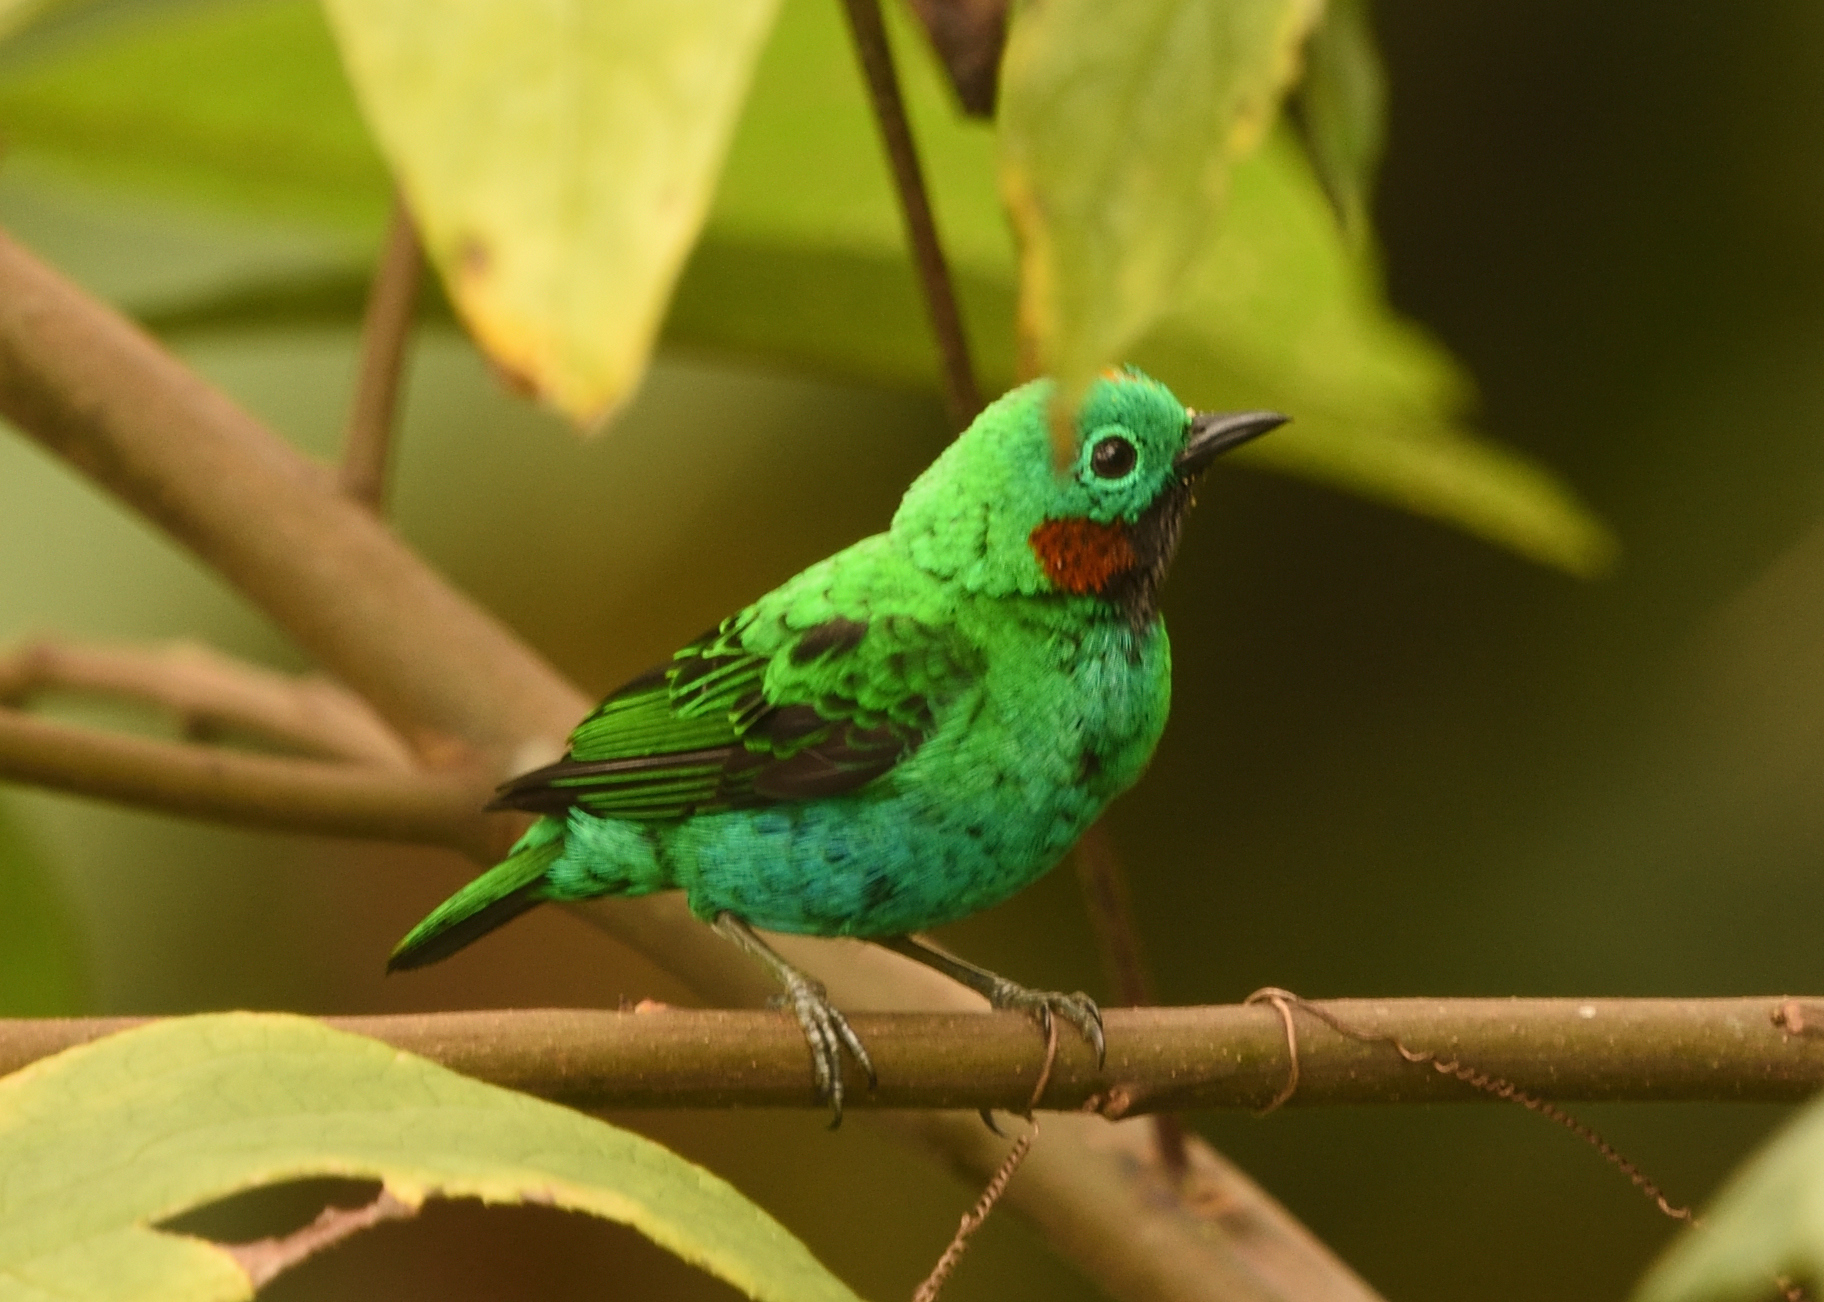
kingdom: Animalia
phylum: Chordata
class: Aves
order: Passeriformes
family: Thraupidae
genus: Chlorochrysa
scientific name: Chlorochrysa calliparaea
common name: Orange-eared tanager
